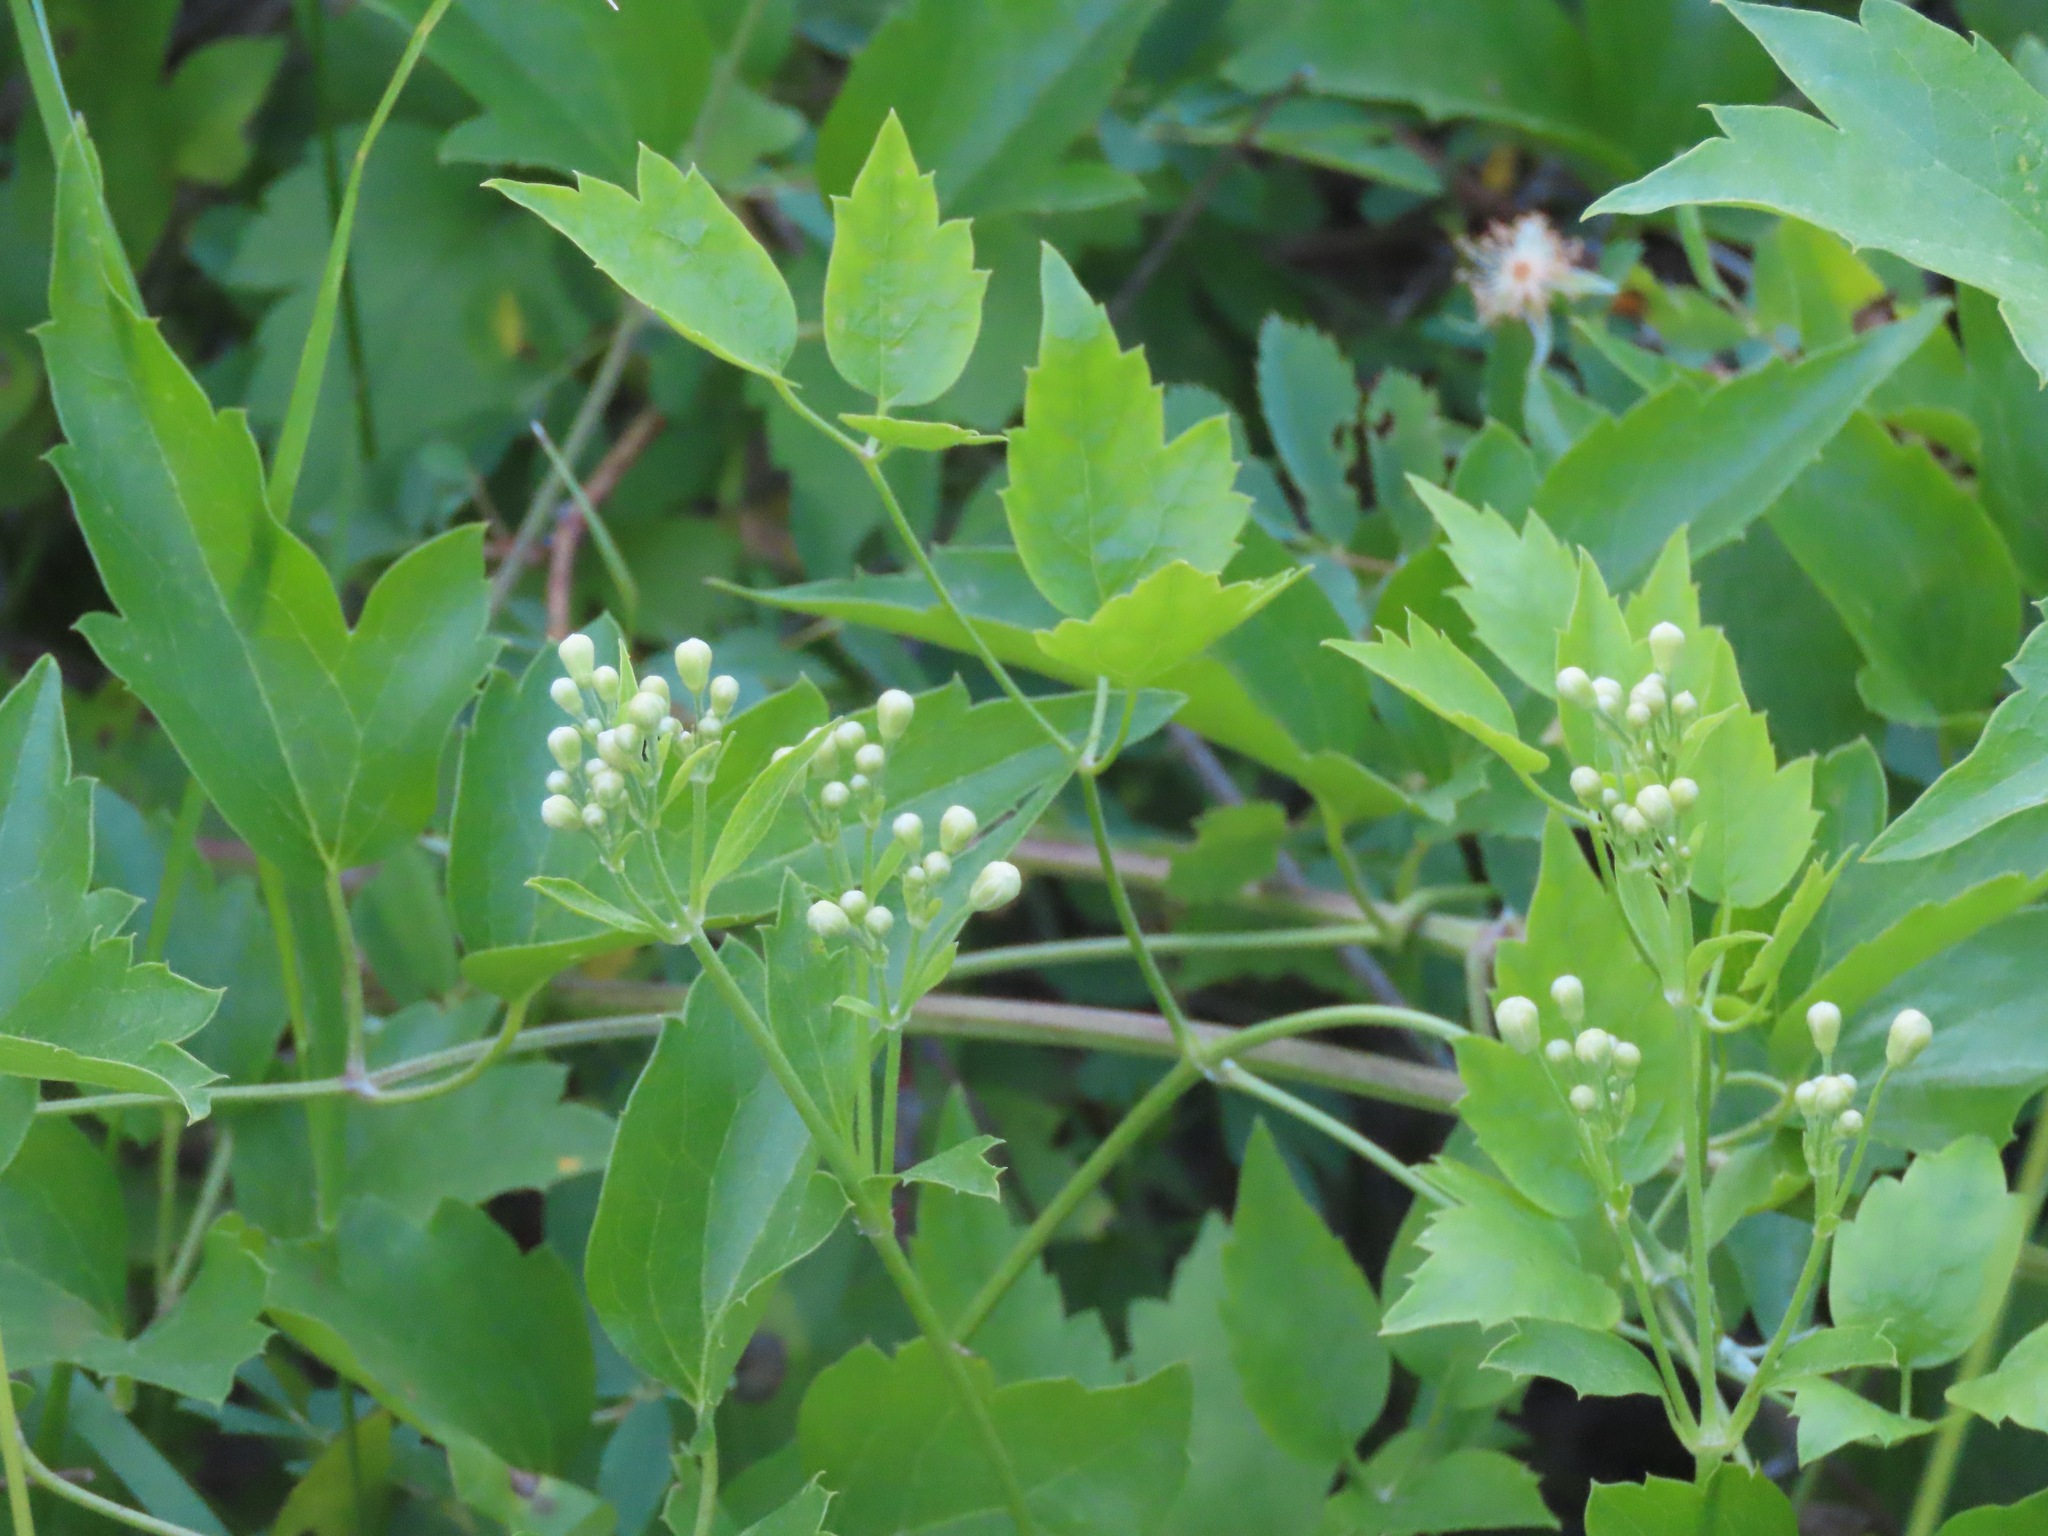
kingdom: Plantae
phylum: Tracheophyta
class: Magnoliopsida
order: Ranunculales
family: Ranunculaceae
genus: Clematis
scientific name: Clematis ligusticifolia
